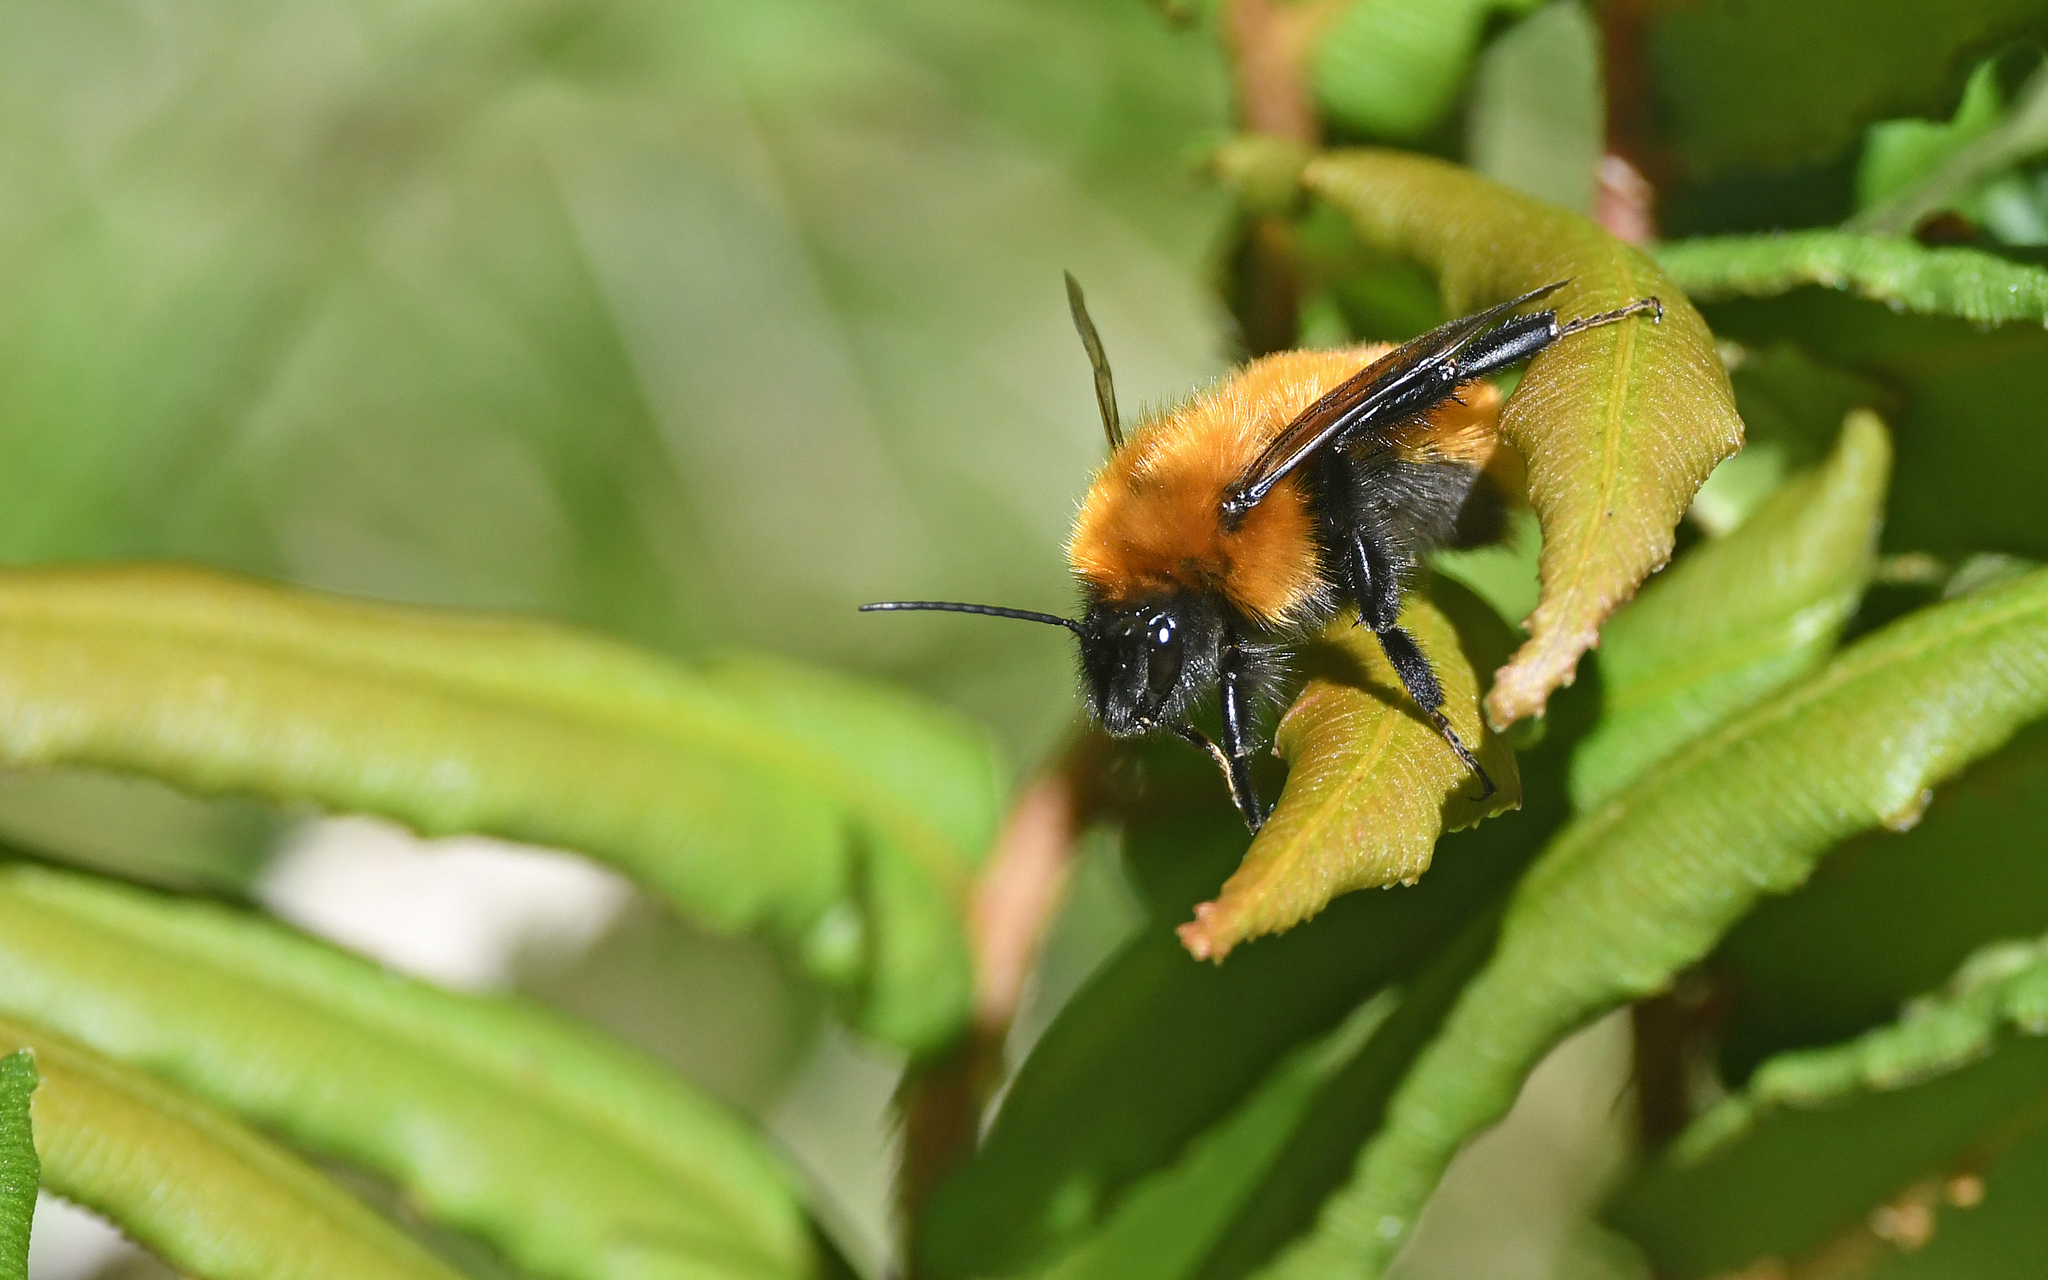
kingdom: Animalia
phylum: Arthropoda
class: Insecta
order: Hymenoptera
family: Apidae
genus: Bombus
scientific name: Bombus dahlbomii
